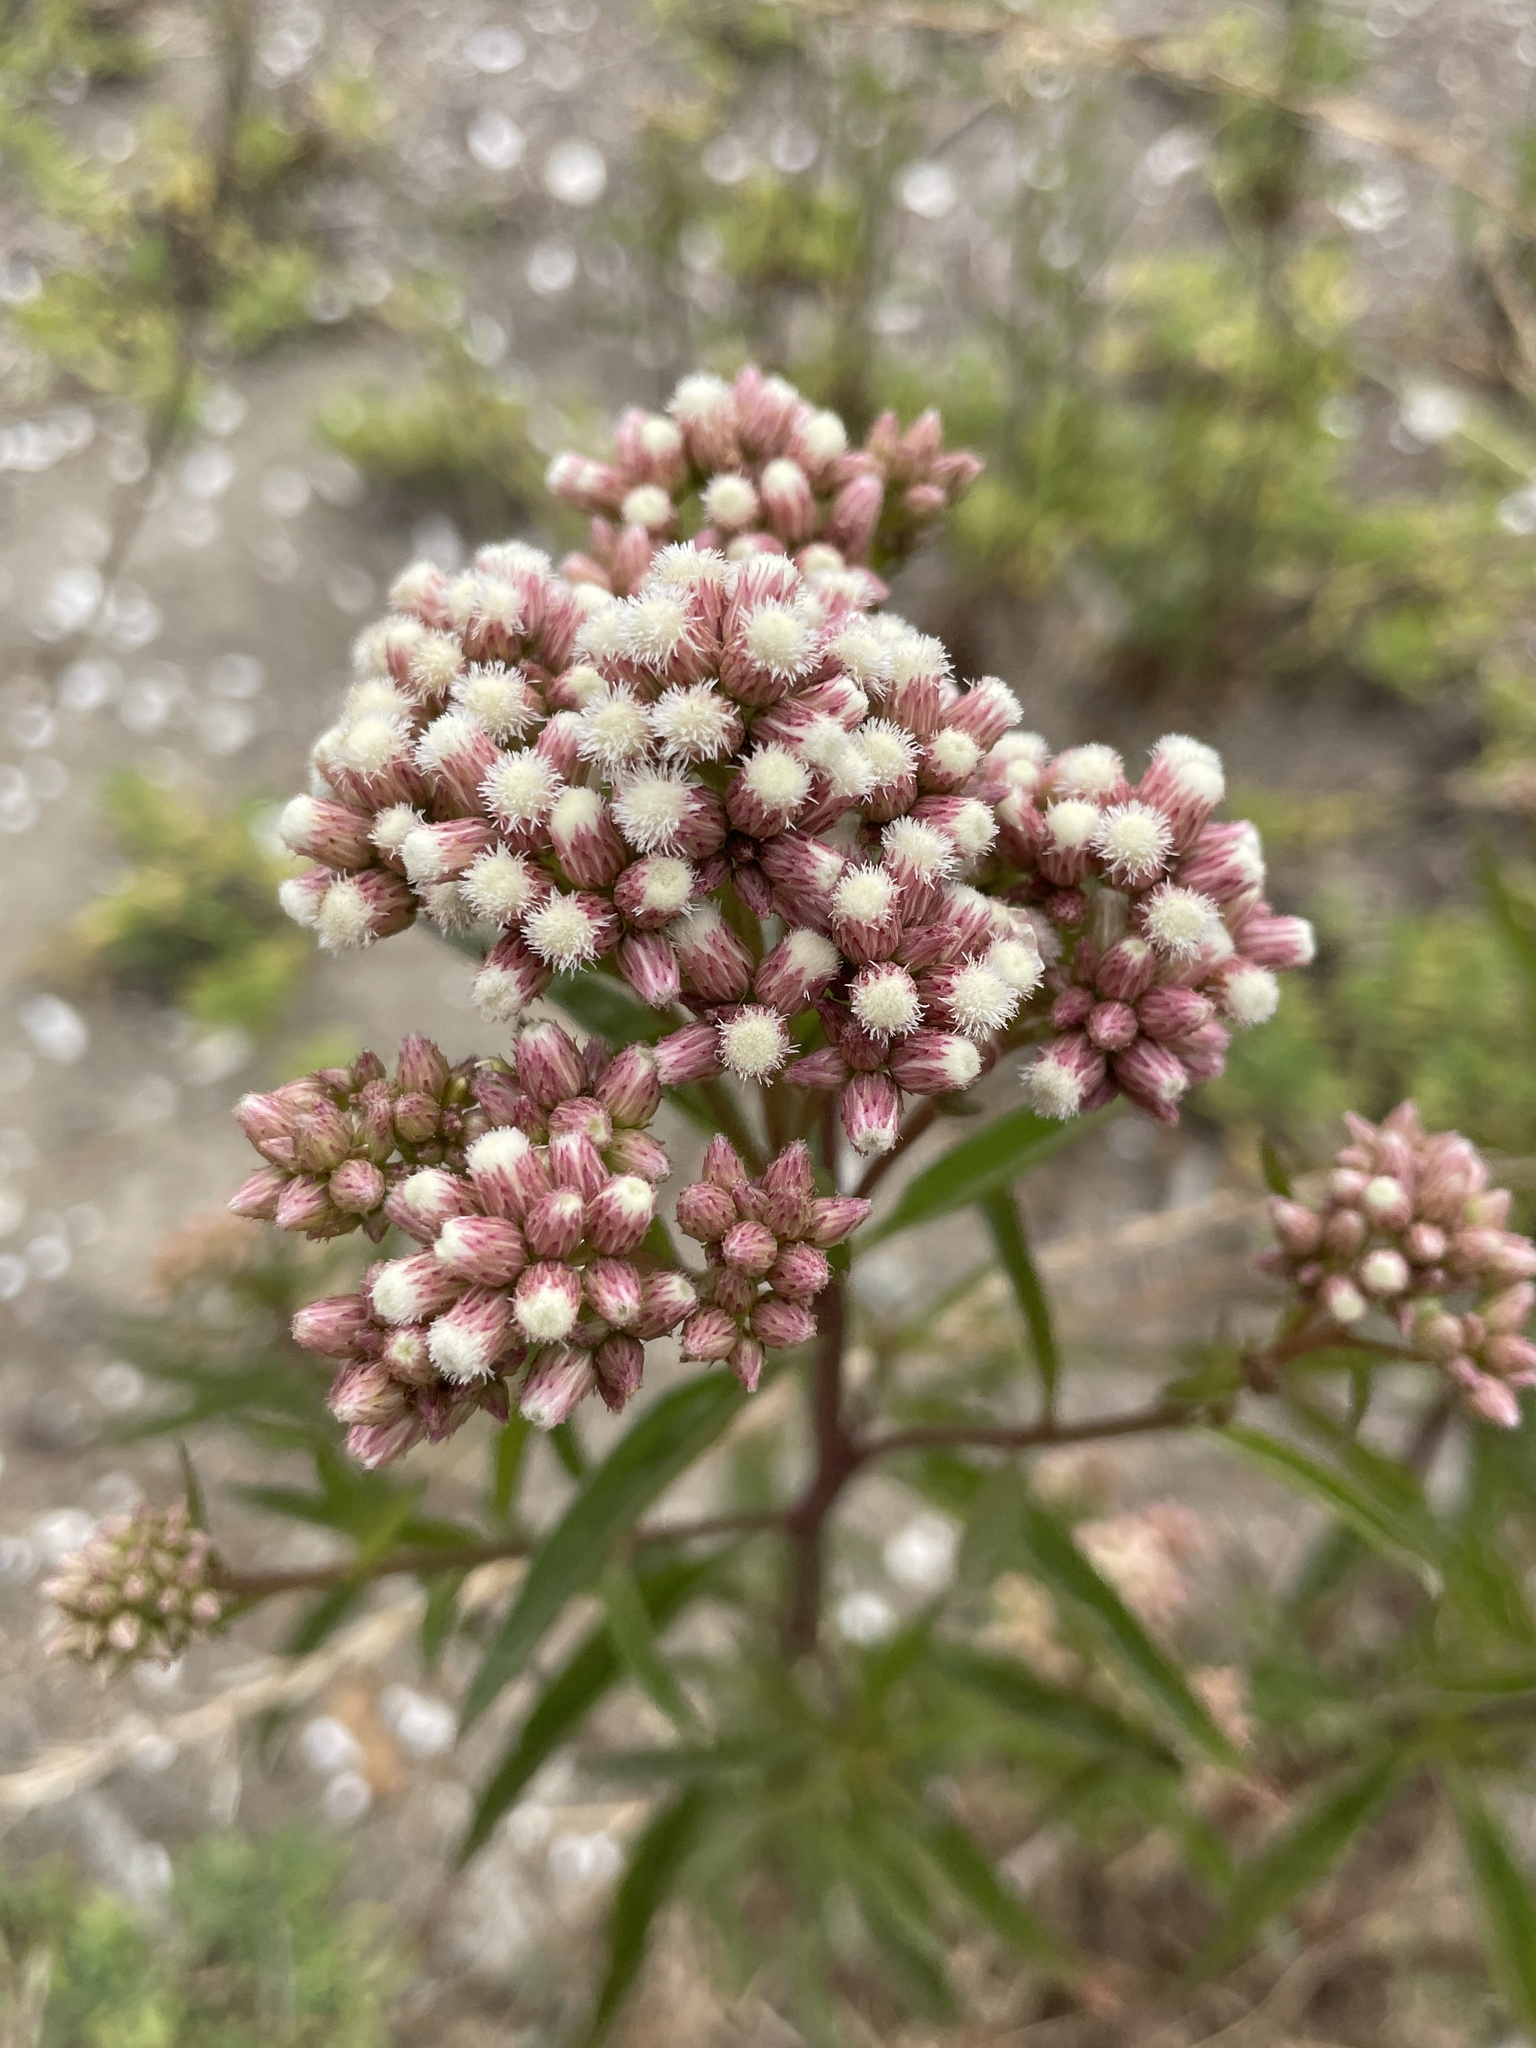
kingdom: Plantae
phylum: Tracheophyta
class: Magnoliopsida
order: Asterales
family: Asteraceae
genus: Baccharis
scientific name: Baccharis glutinosa
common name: Saltmarsh baccharis
